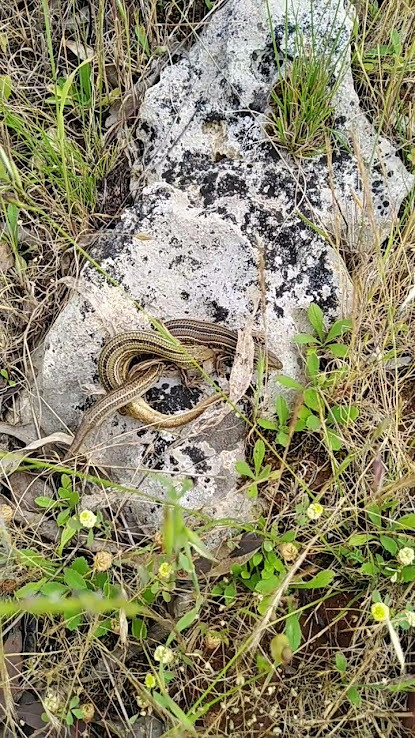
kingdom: Animalia
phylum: Chordata
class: Squamata
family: Scincidae
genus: Ctenotus
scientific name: Ctenotus robustus
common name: Robust ctenotus
